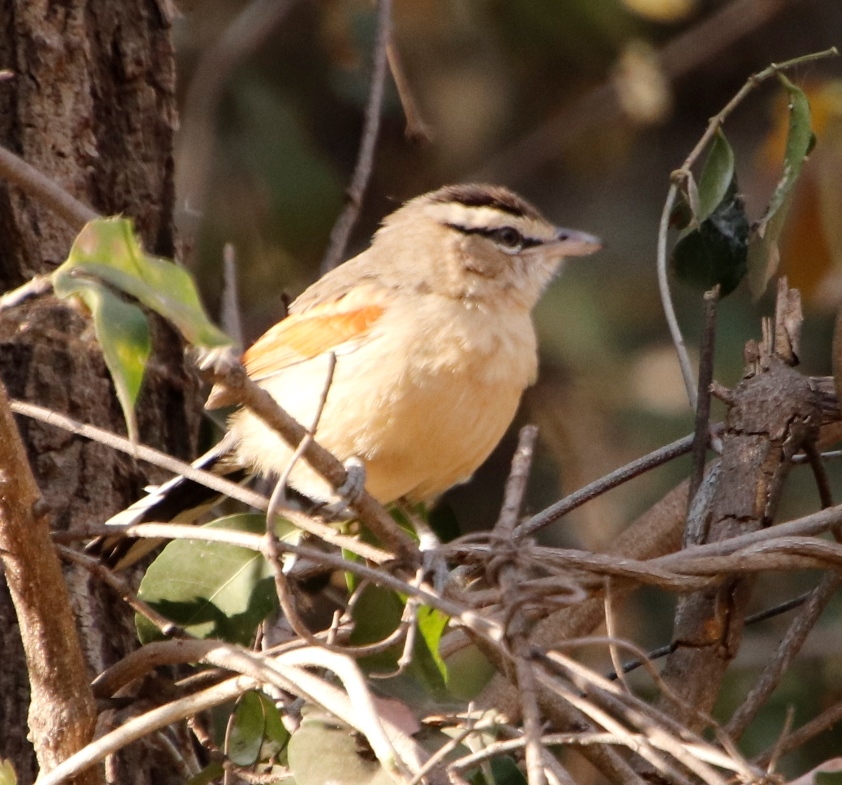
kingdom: Animalia
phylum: Chordata
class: Aves
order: Passeriformes
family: Malaconotidae
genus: Tchagra
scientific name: Tchagra australis
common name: Brown-crowned tchagra
